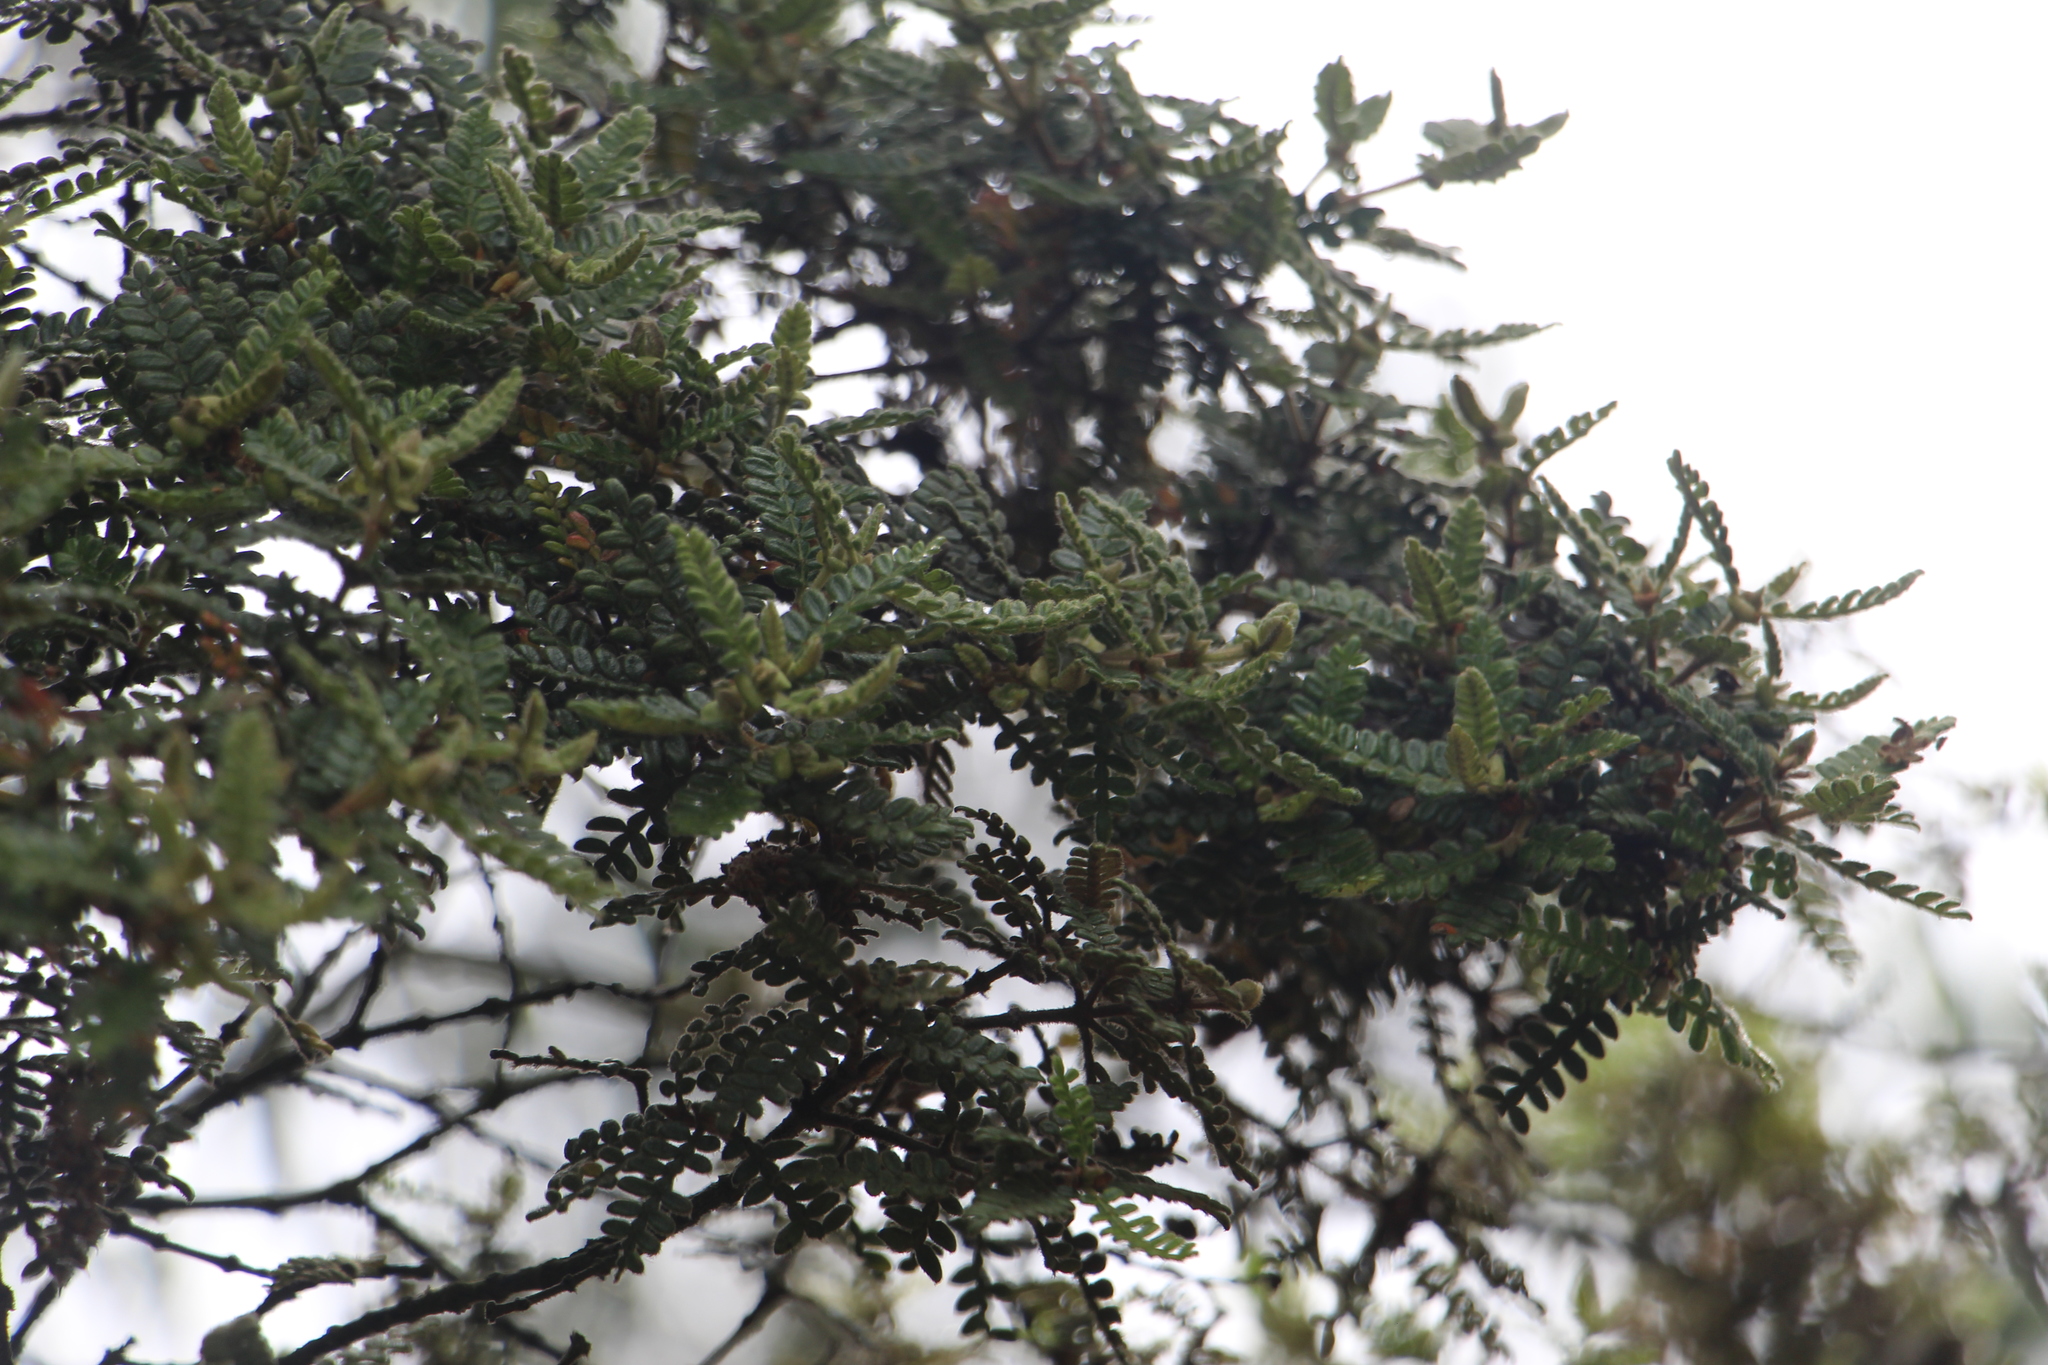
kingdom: Plantae
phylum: Tracheophyta
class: Magnoliopsida
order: Oxalidales
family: Cunoniaceae
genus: Weinmannia
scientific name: Weinmannia tomentosa
